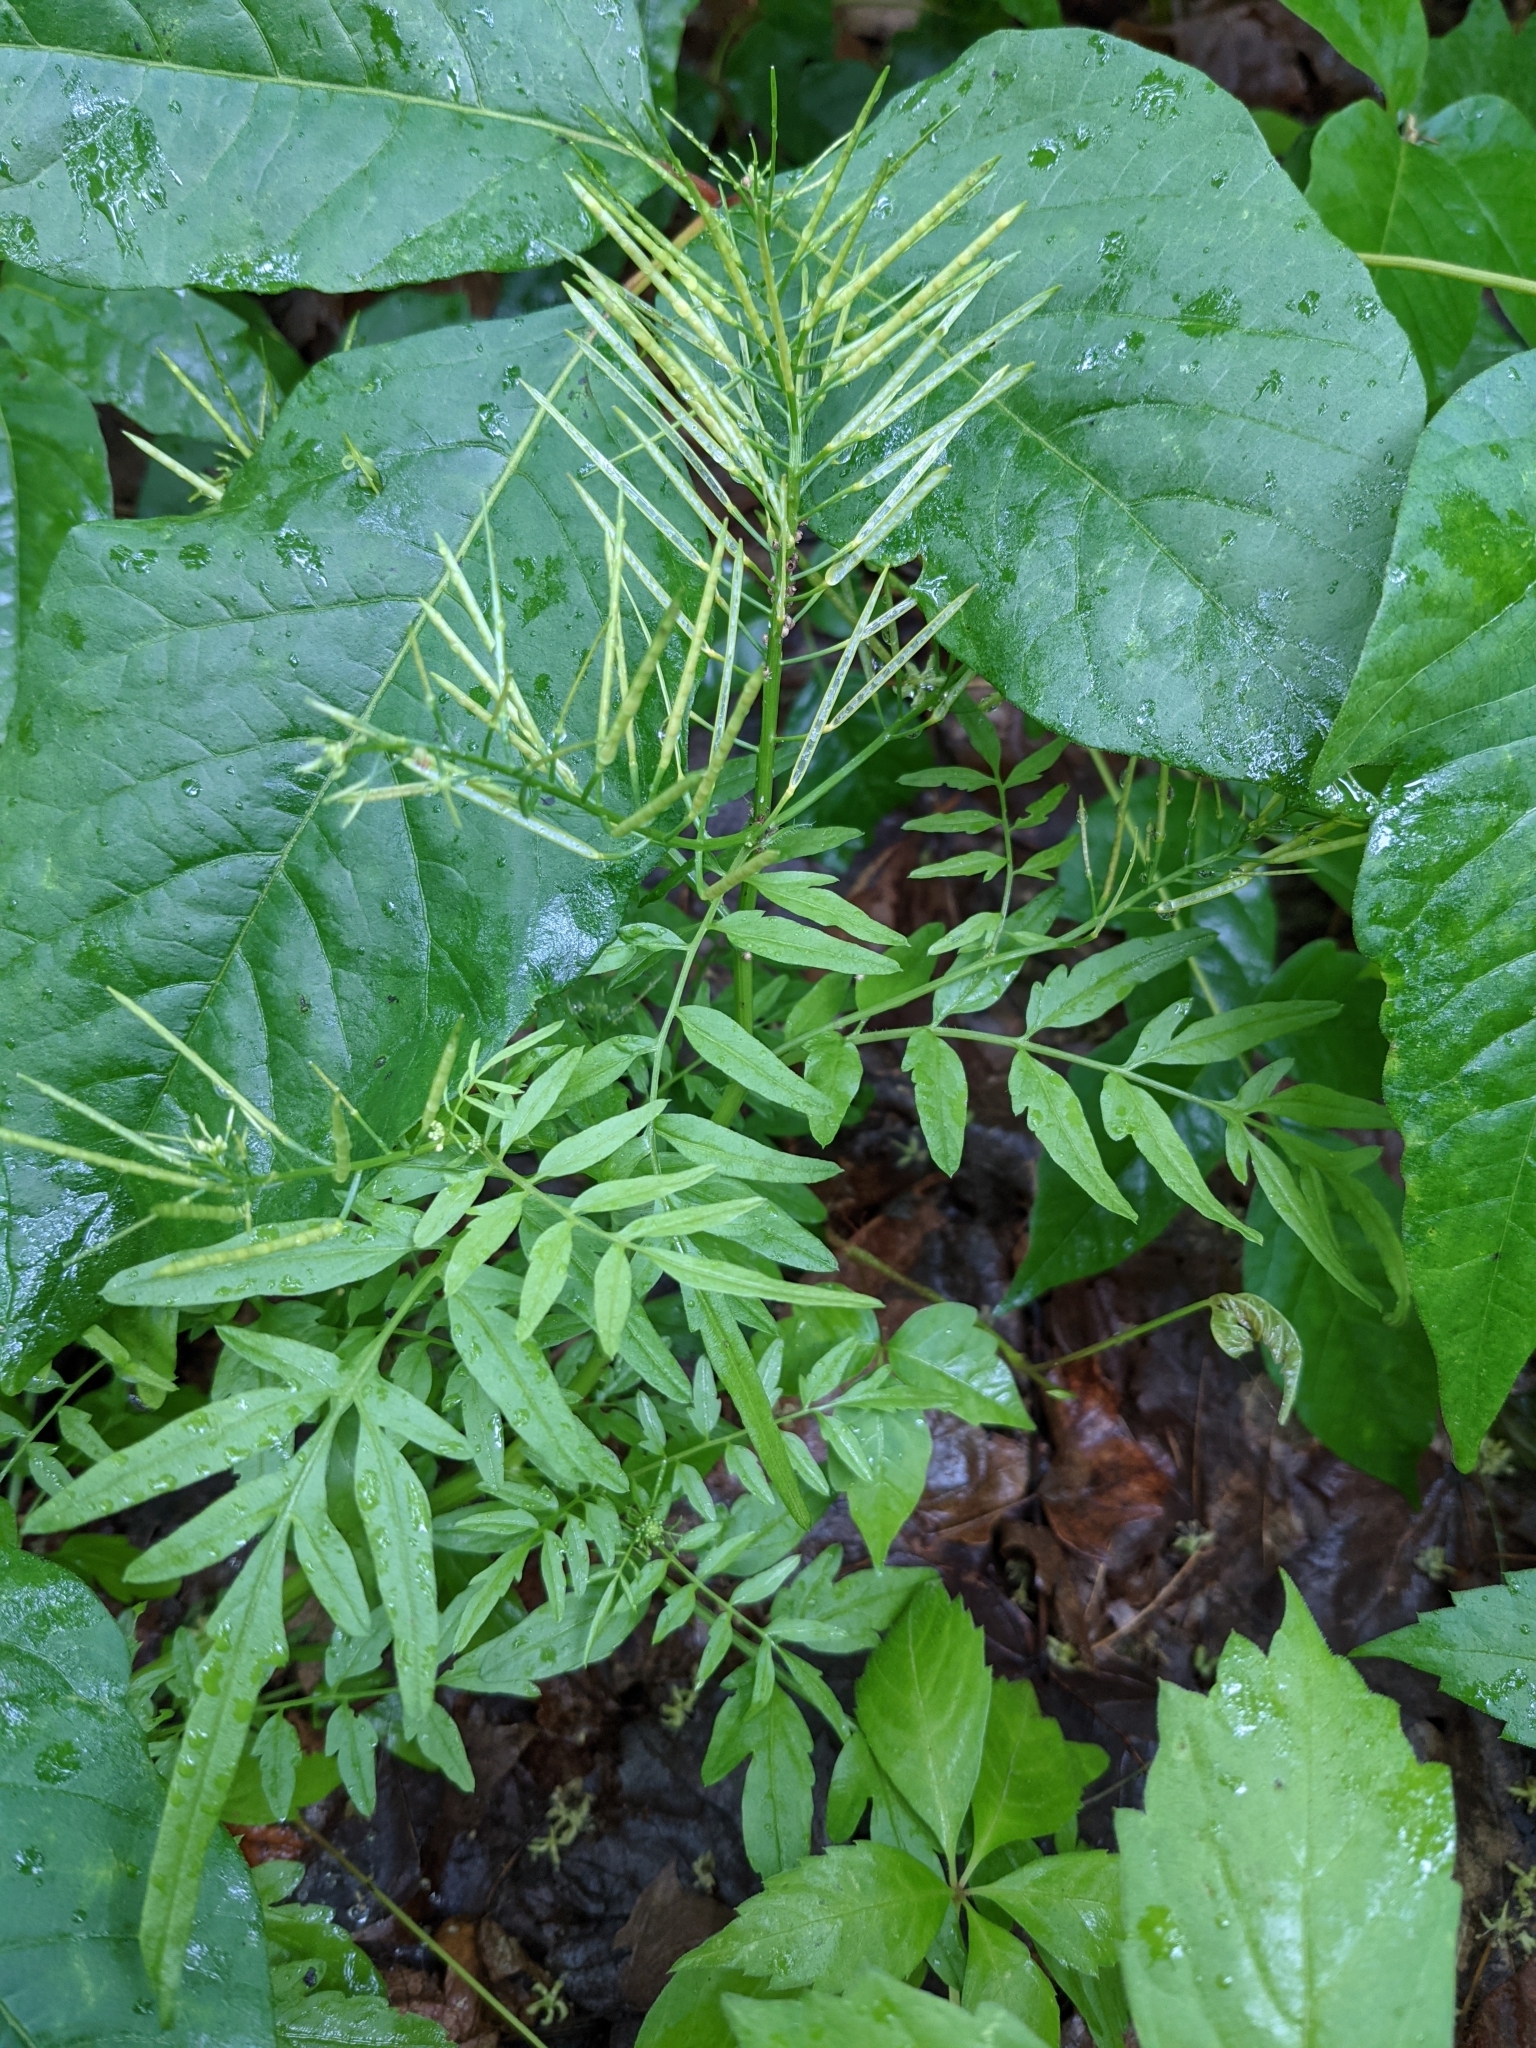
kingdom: Plantae
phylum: Tracheophyta
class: Magnoliopsida
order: Brassicales
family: Brassicaceae
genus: Cardamine
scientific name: Cardamine impatiens
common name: Narrow-leaved bitter-cress
